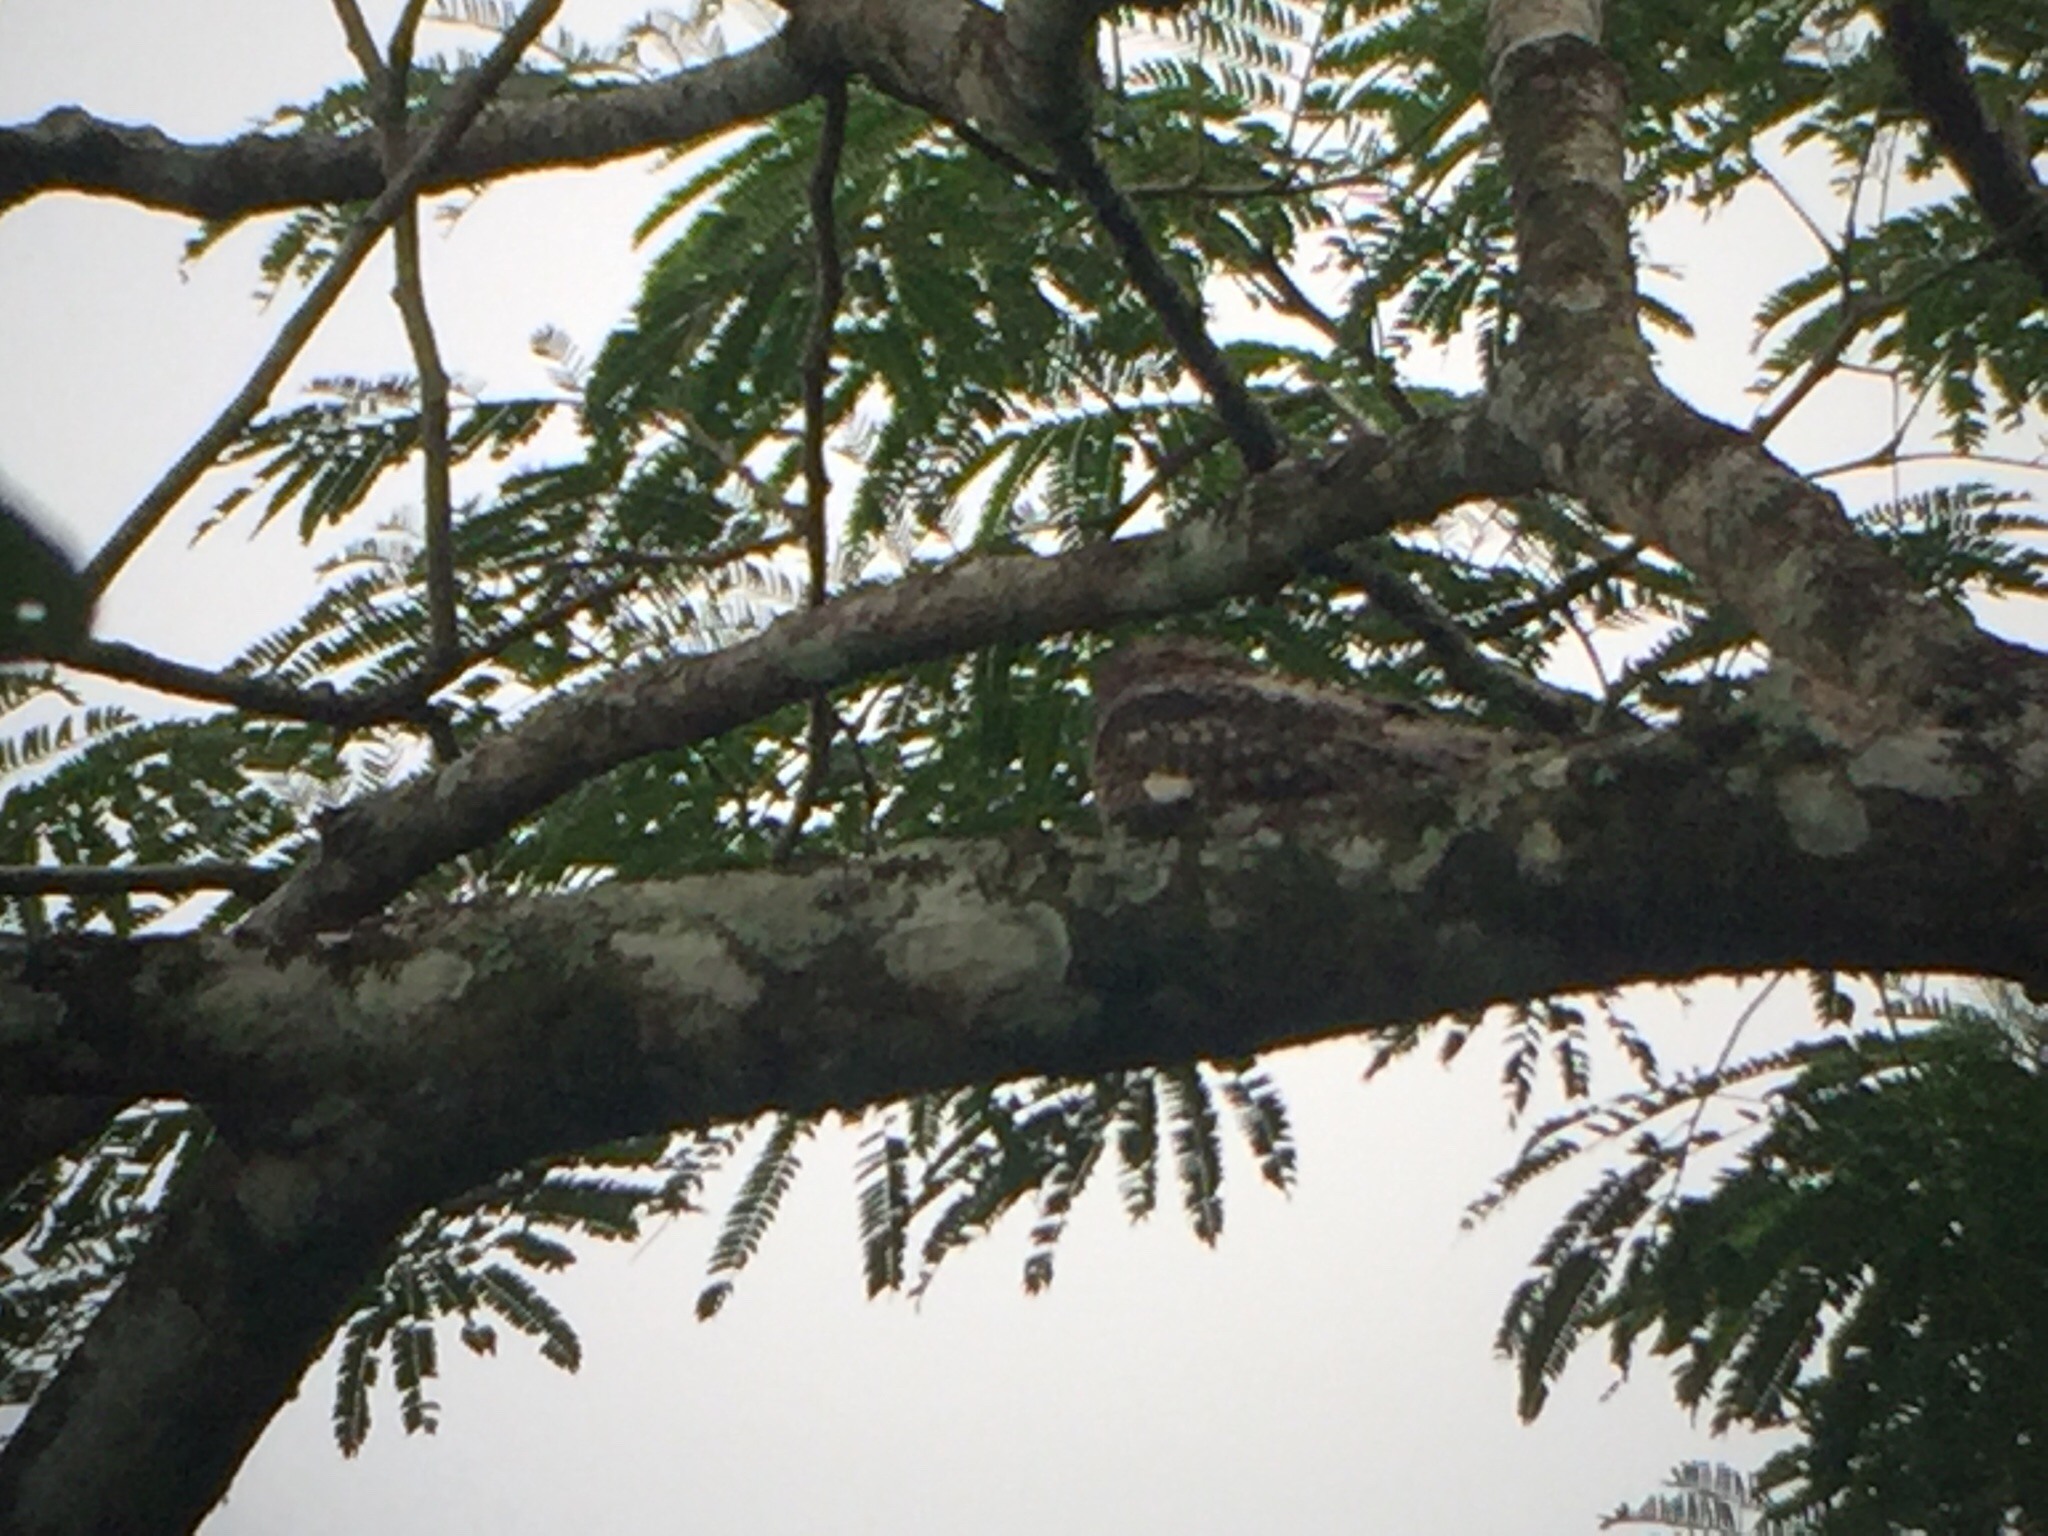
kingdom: Animalia
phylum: Chordata
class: Aves
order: Caprimulgiformes
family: Caprimulgidae
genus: Chordeiles
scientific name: Chordeiles acutipennis
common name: Lesser nighthawk
